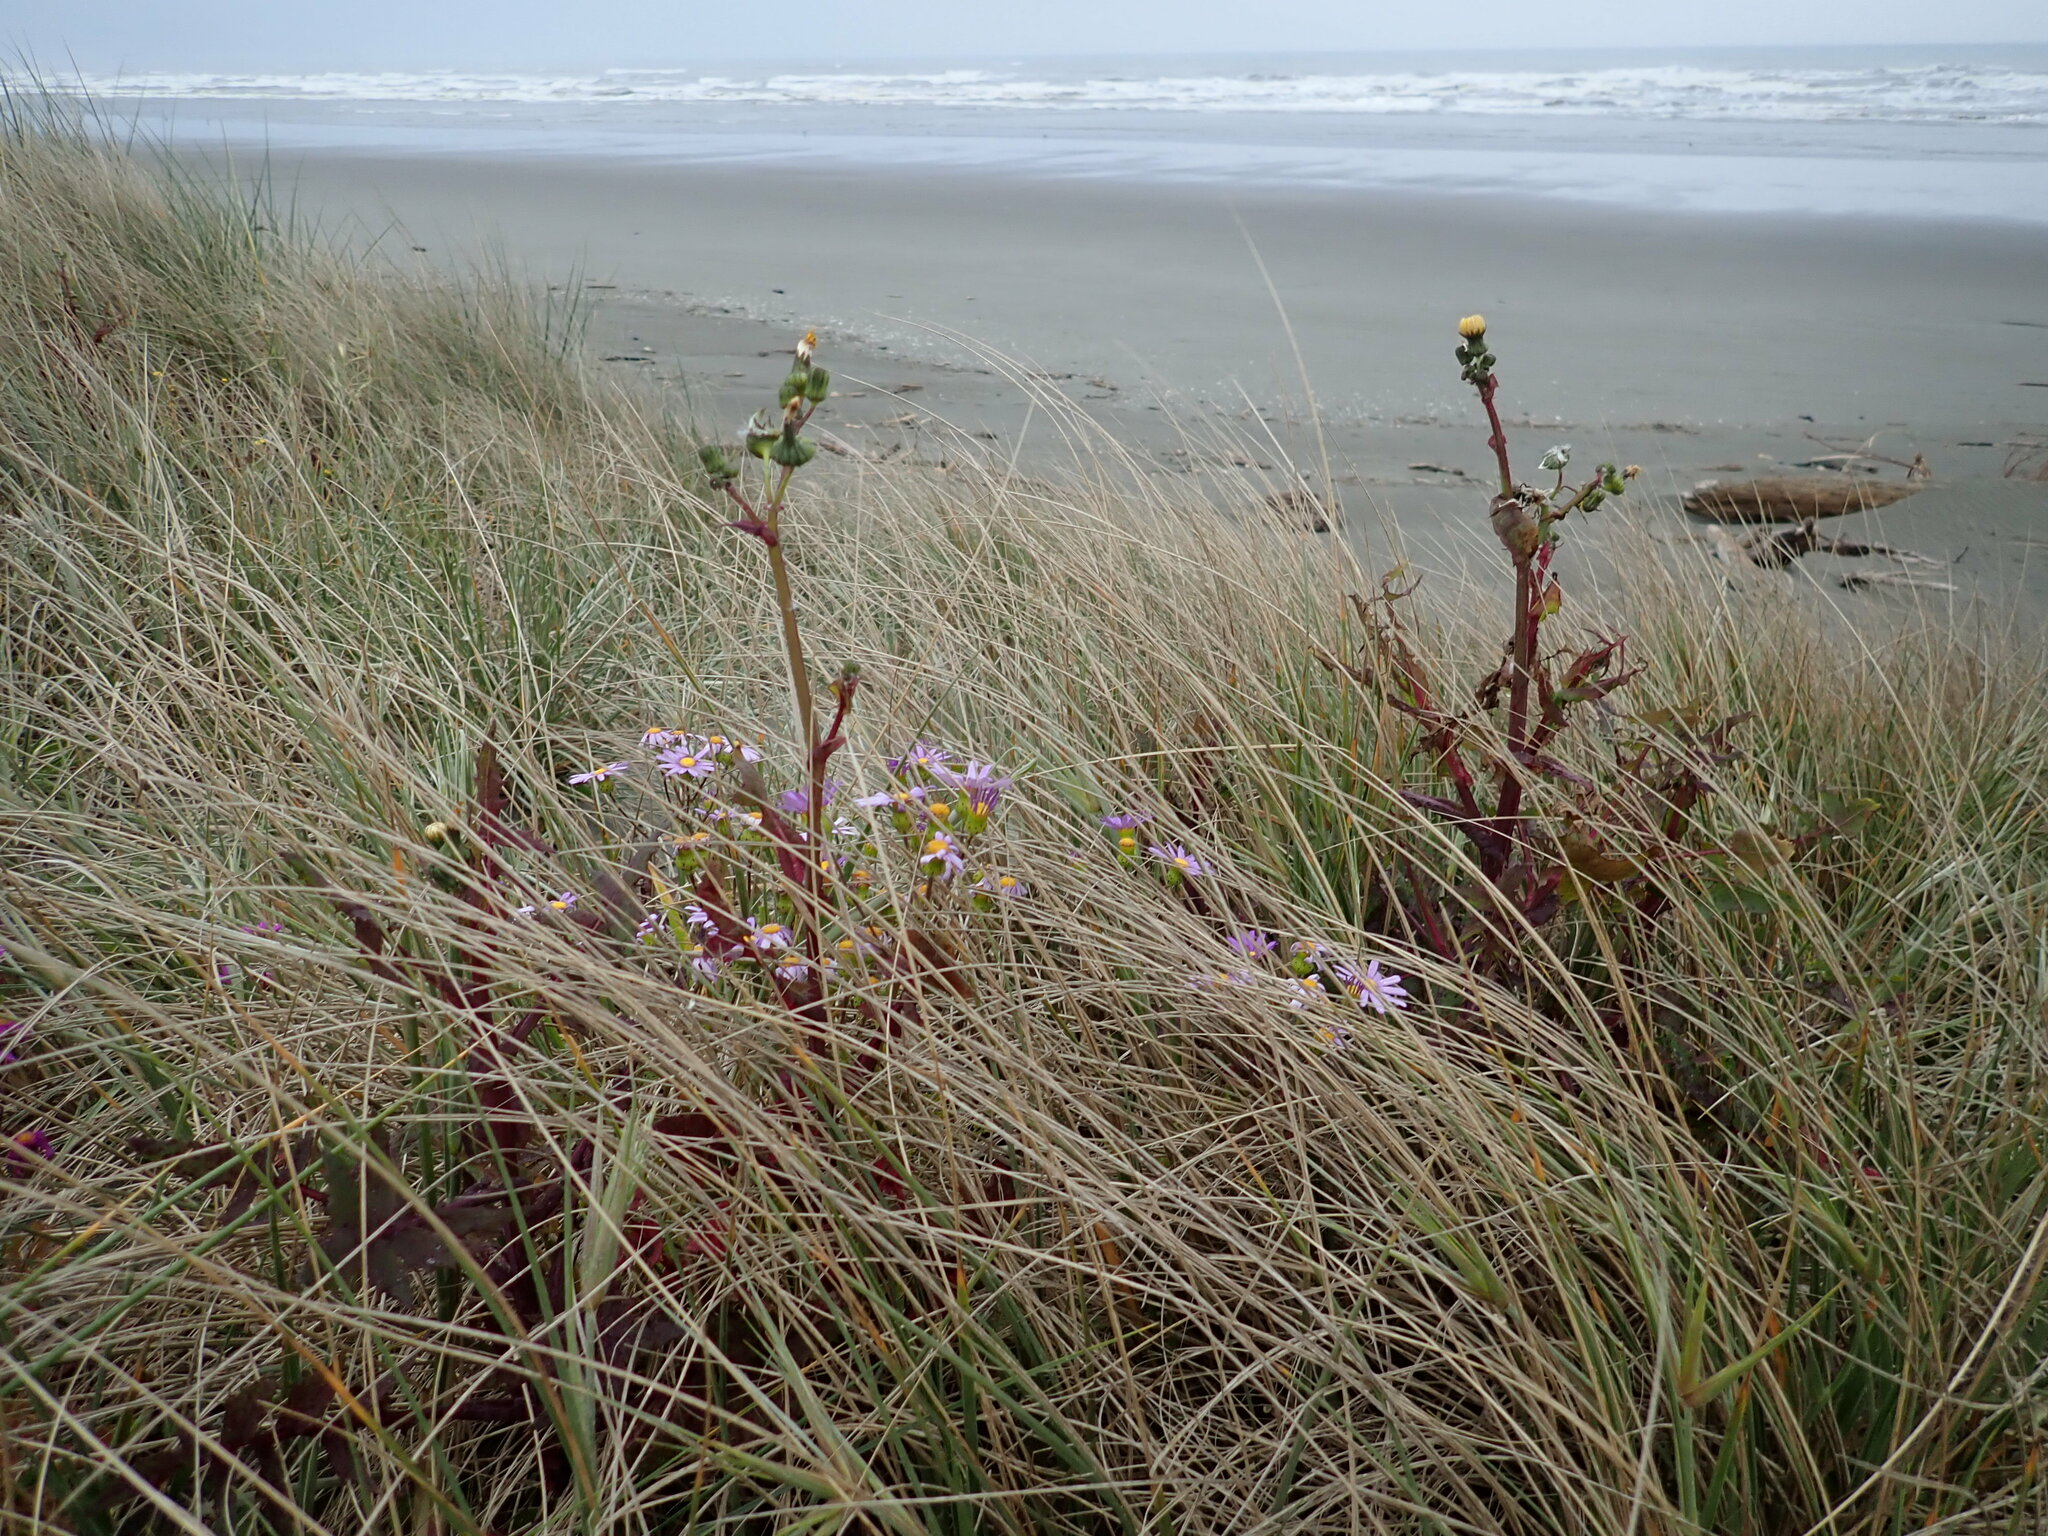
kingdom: Plantae
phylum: Tracheophyta
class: Magnoliopsida
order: Asterales
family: Asteraceae
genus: Sonchus
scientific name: Sonchus oleraceus
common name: Common sowthistle
